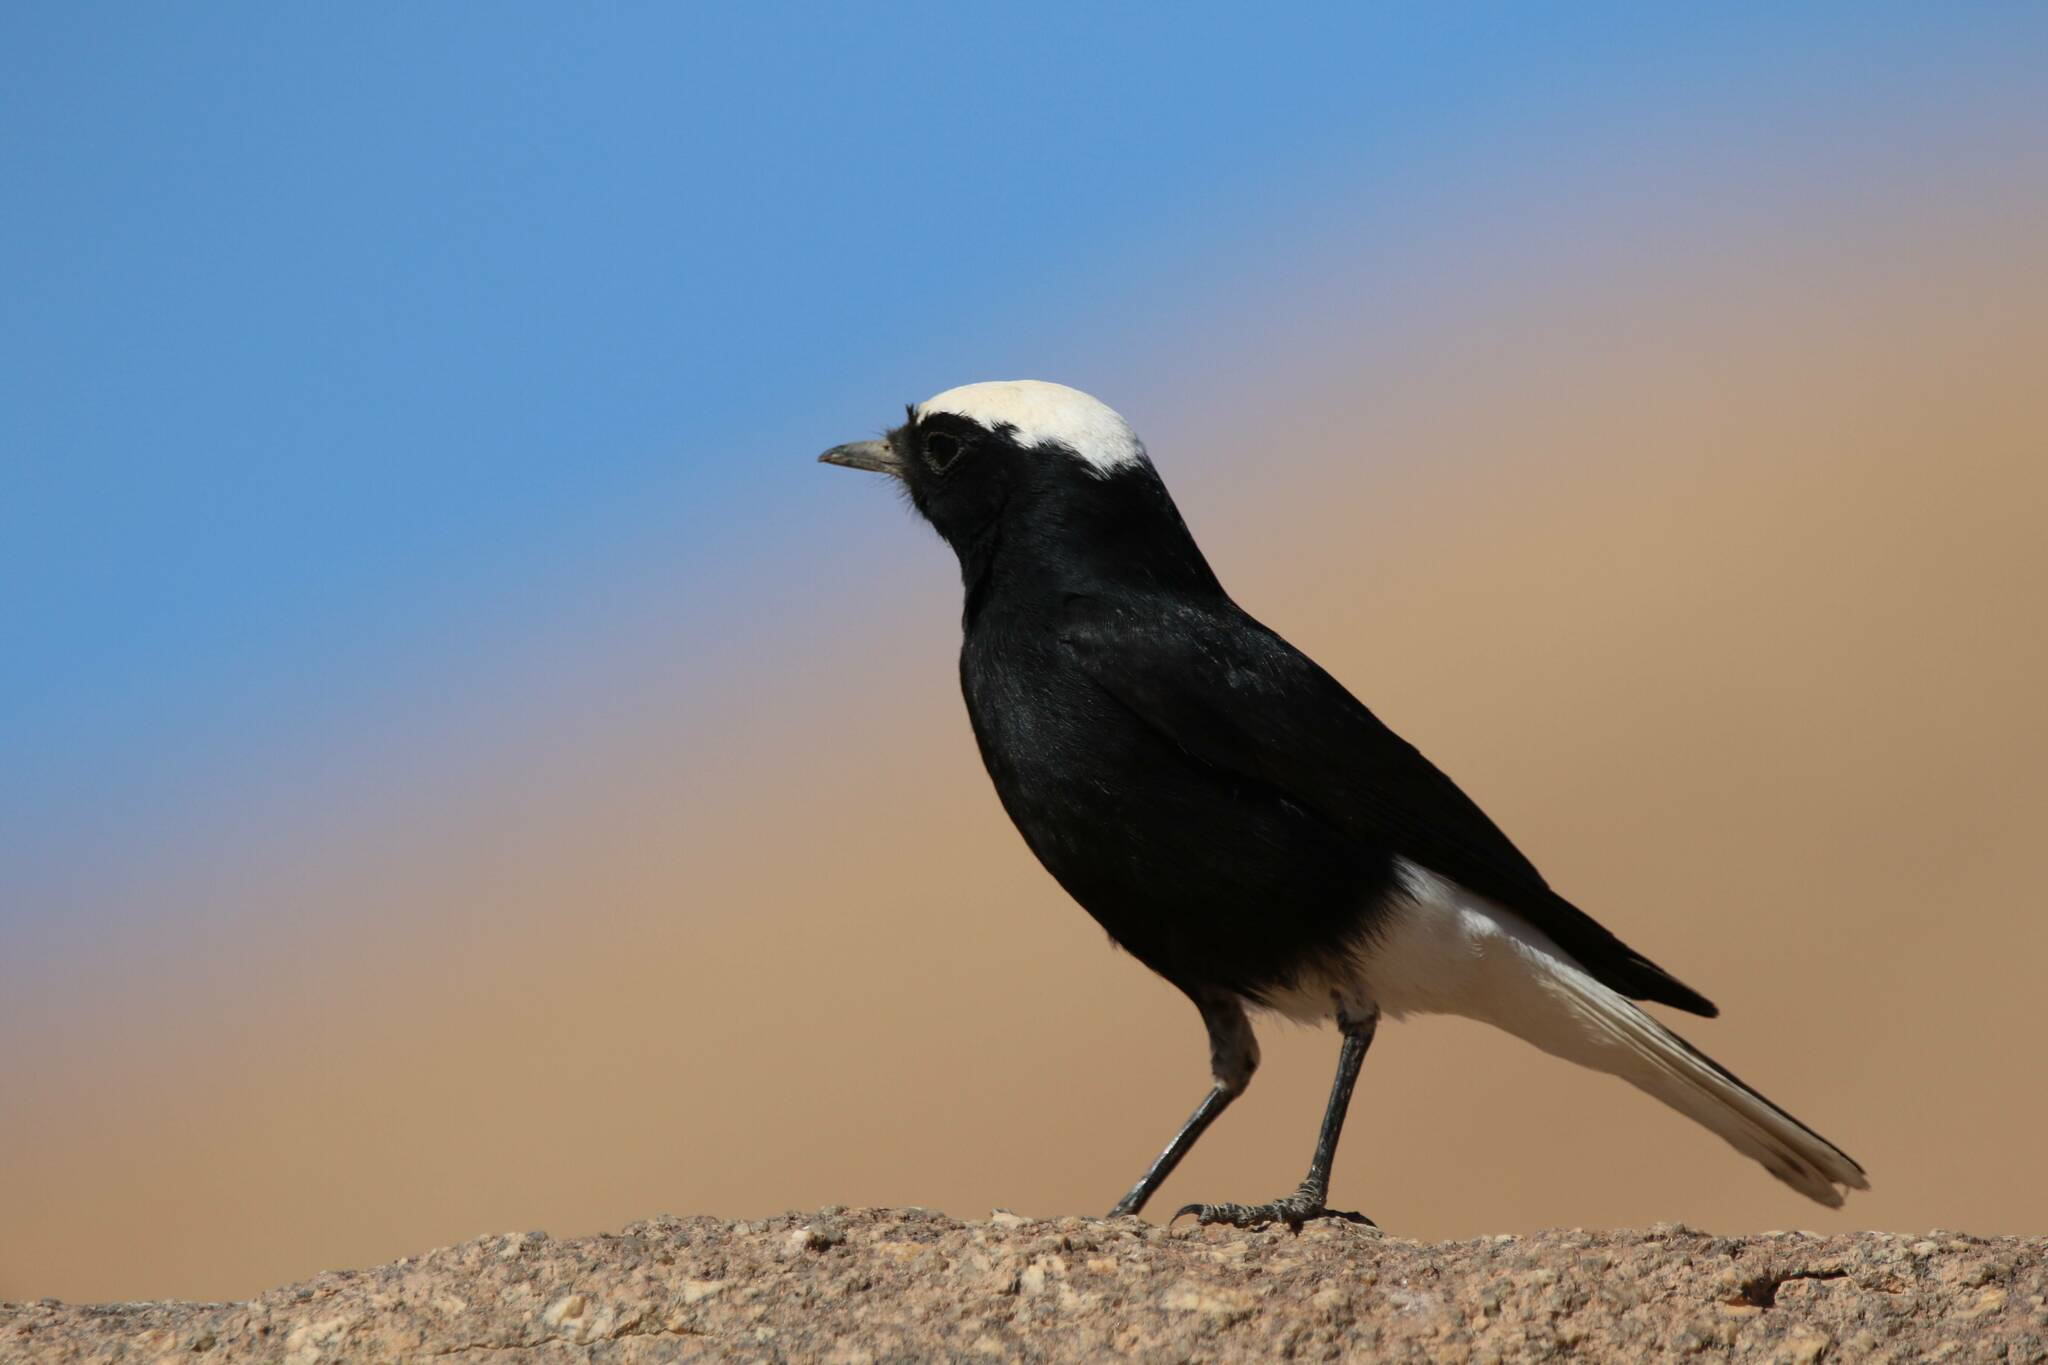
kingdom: Animalia
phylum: Chordata
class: Aves
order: Passeriformes
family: Muscicapidae
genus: Oenanthe
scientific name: Oenanthe leucopyga
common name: White-crowned wheatear
